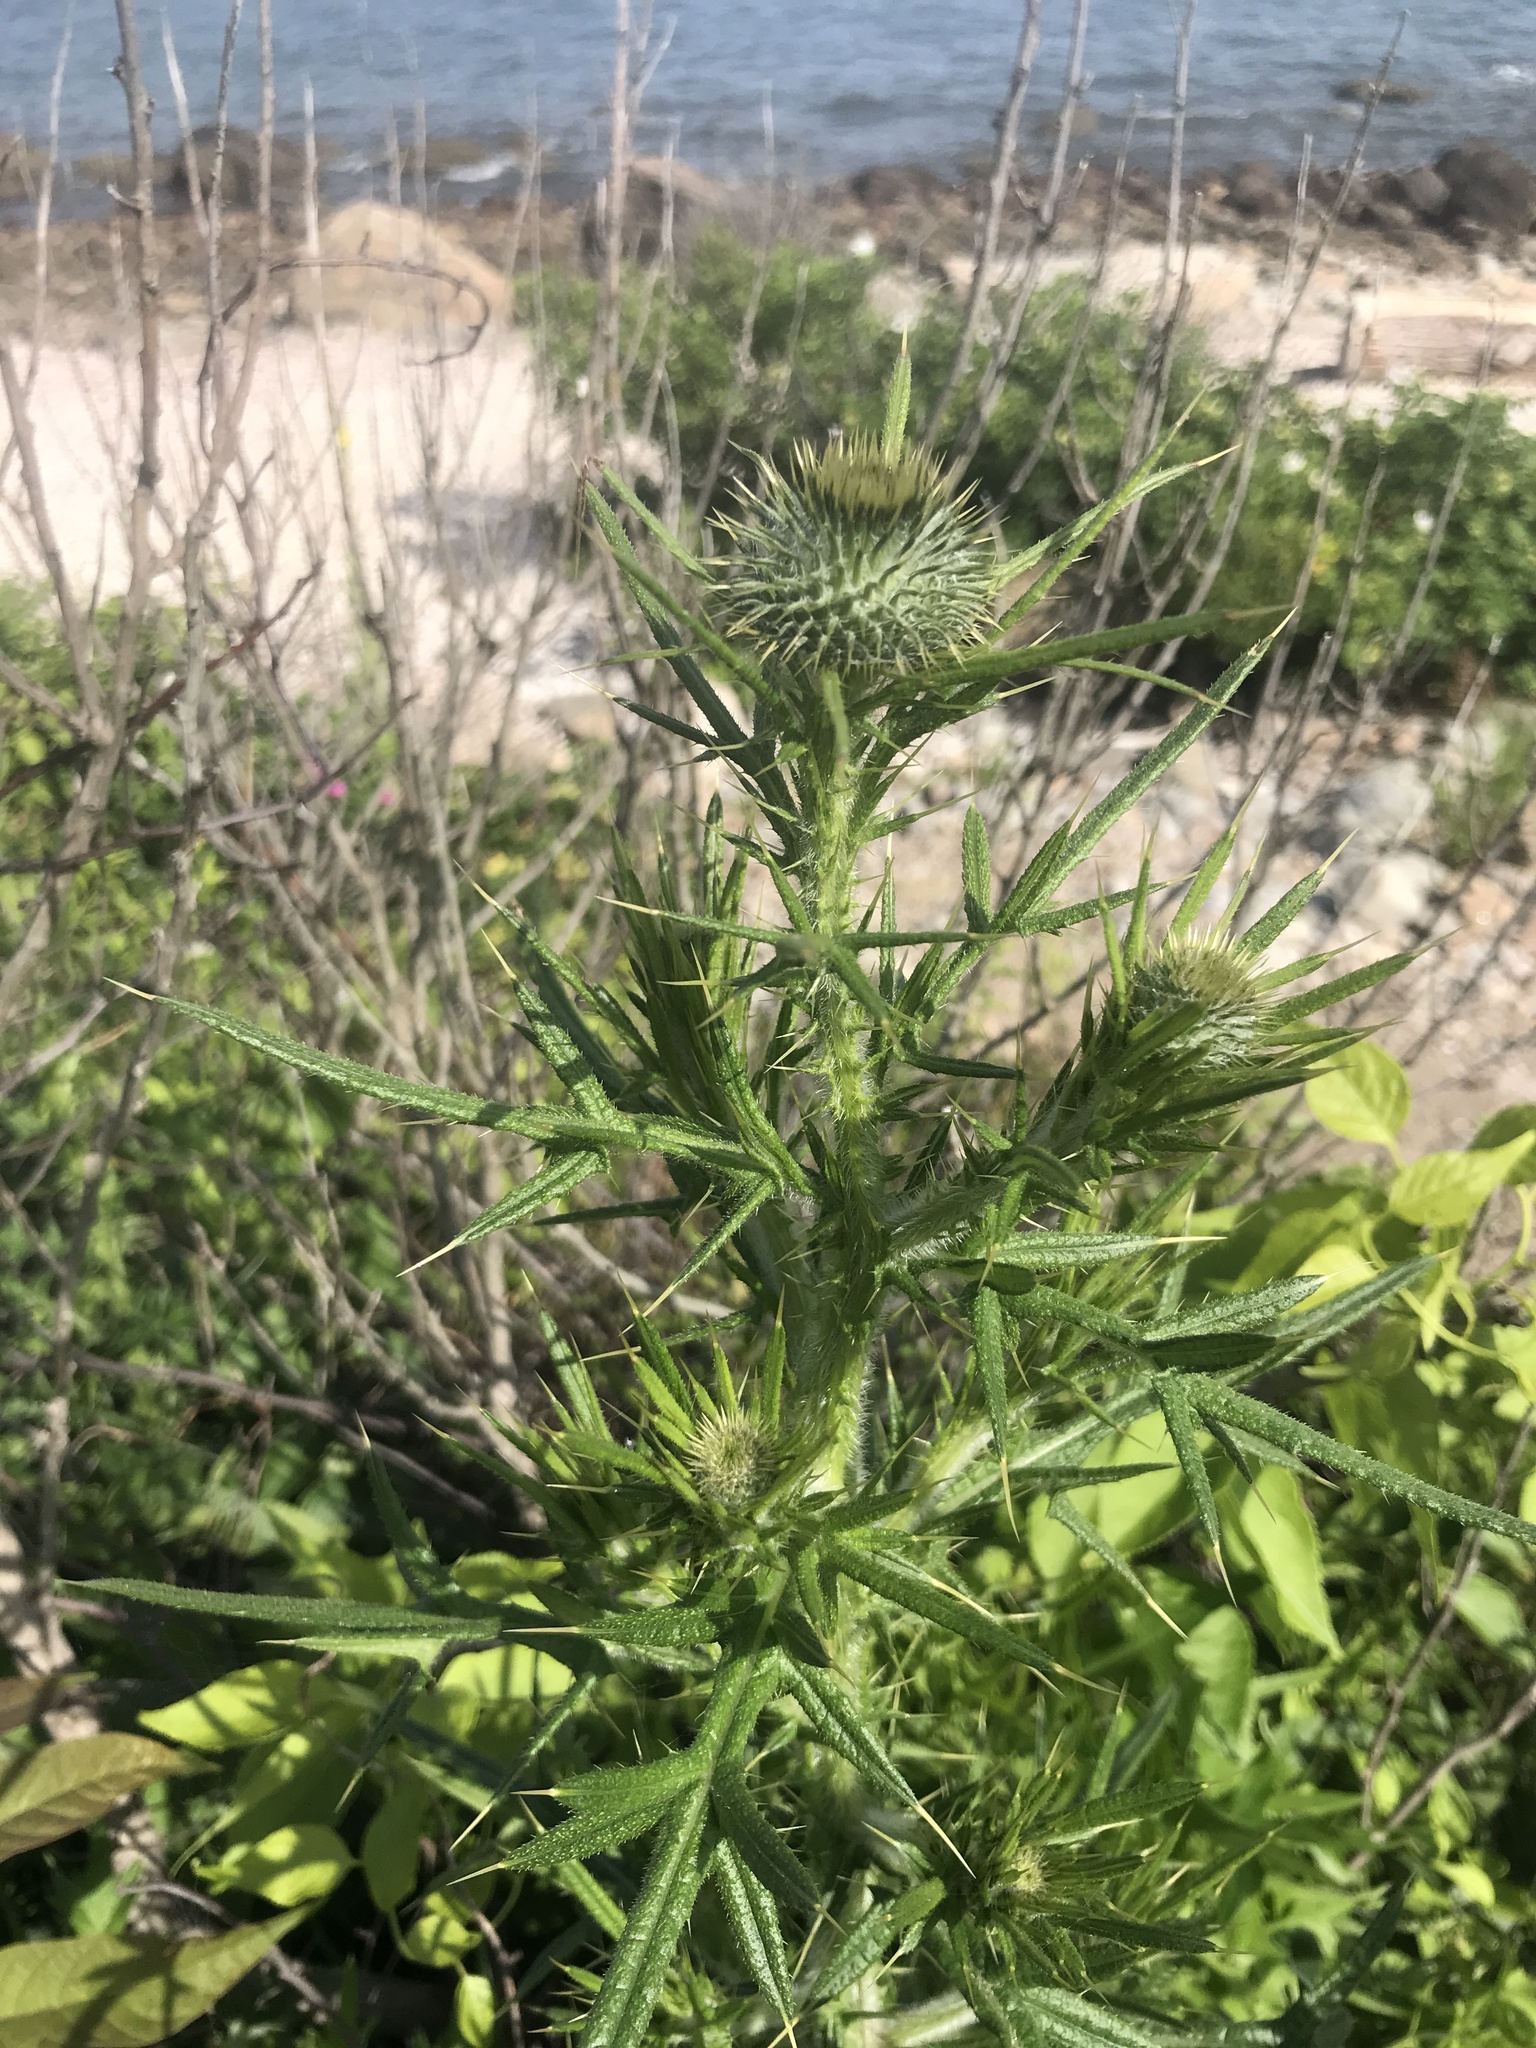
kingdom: Plantae
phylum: Tracheophyta
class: Magnoliopsida
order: Asterales
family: Asteraceae
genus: Cirsium
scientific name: Cirsium vulgare
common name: Bull thistle
